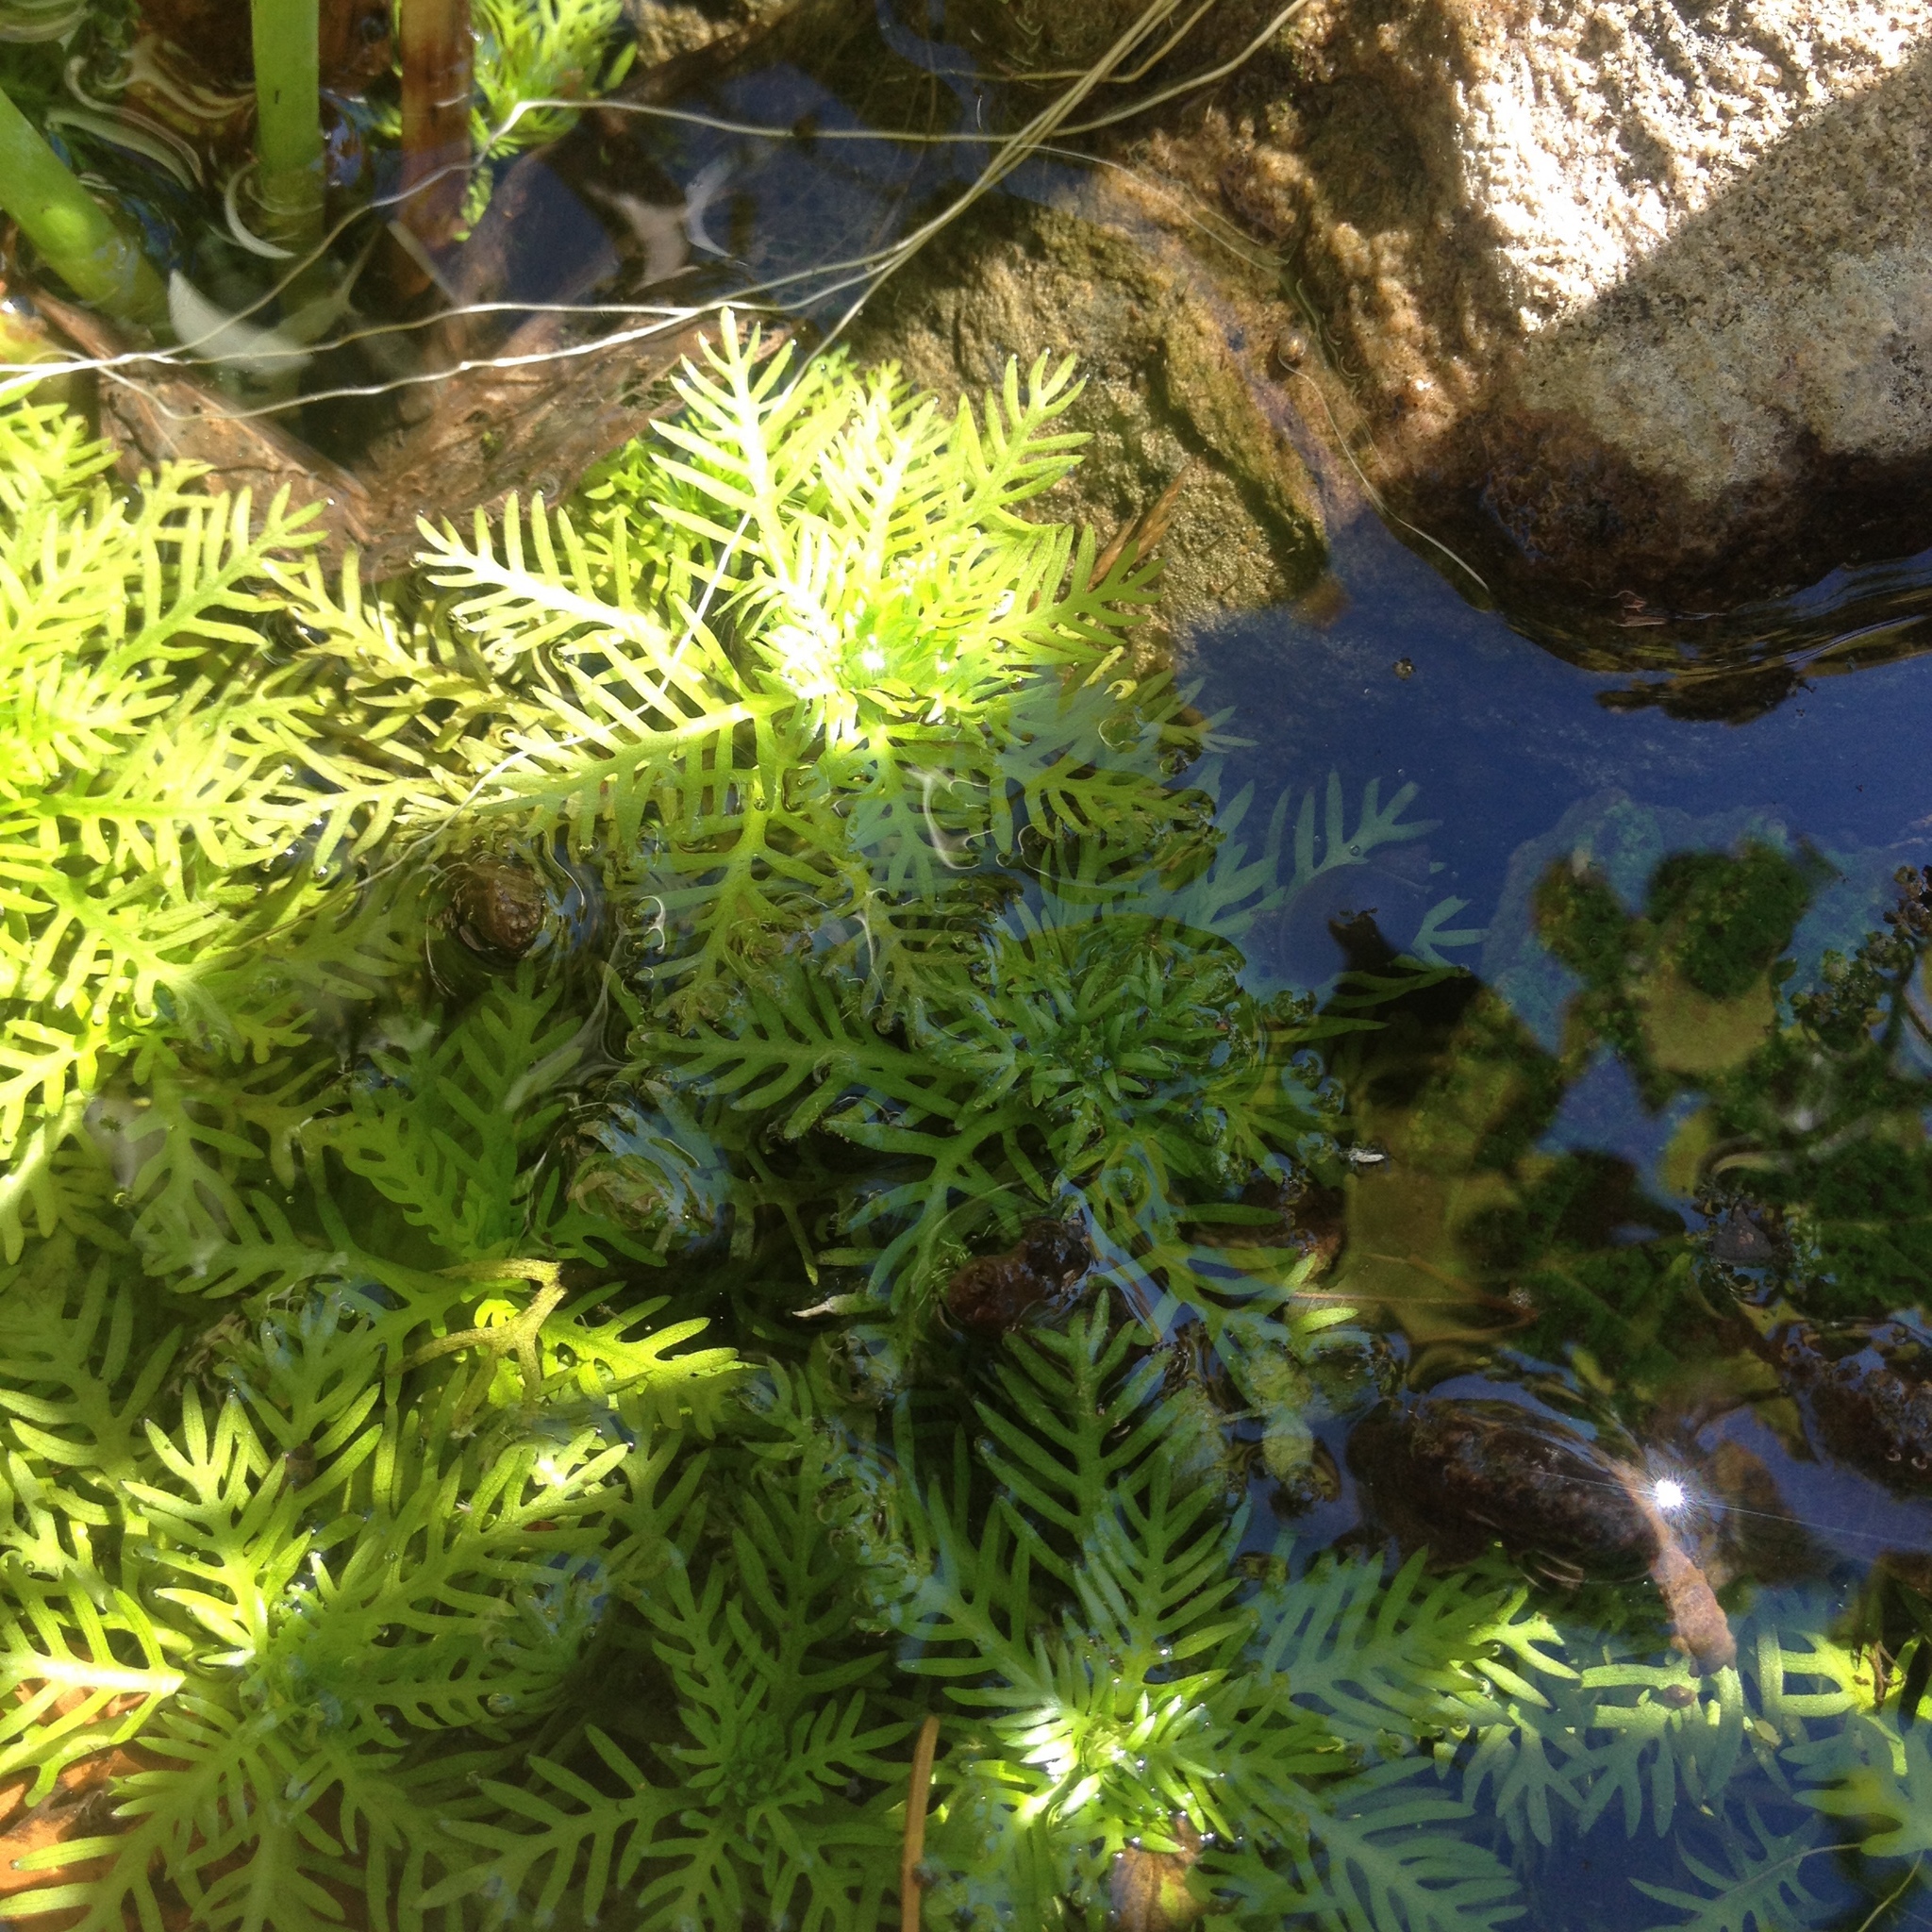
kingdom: Plantae
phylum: Tracheophyta
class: Magnoliopsida
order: Ericales
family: Primulaceae
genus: Hottonia
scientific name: Hottonia palustris
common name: Water-violet
